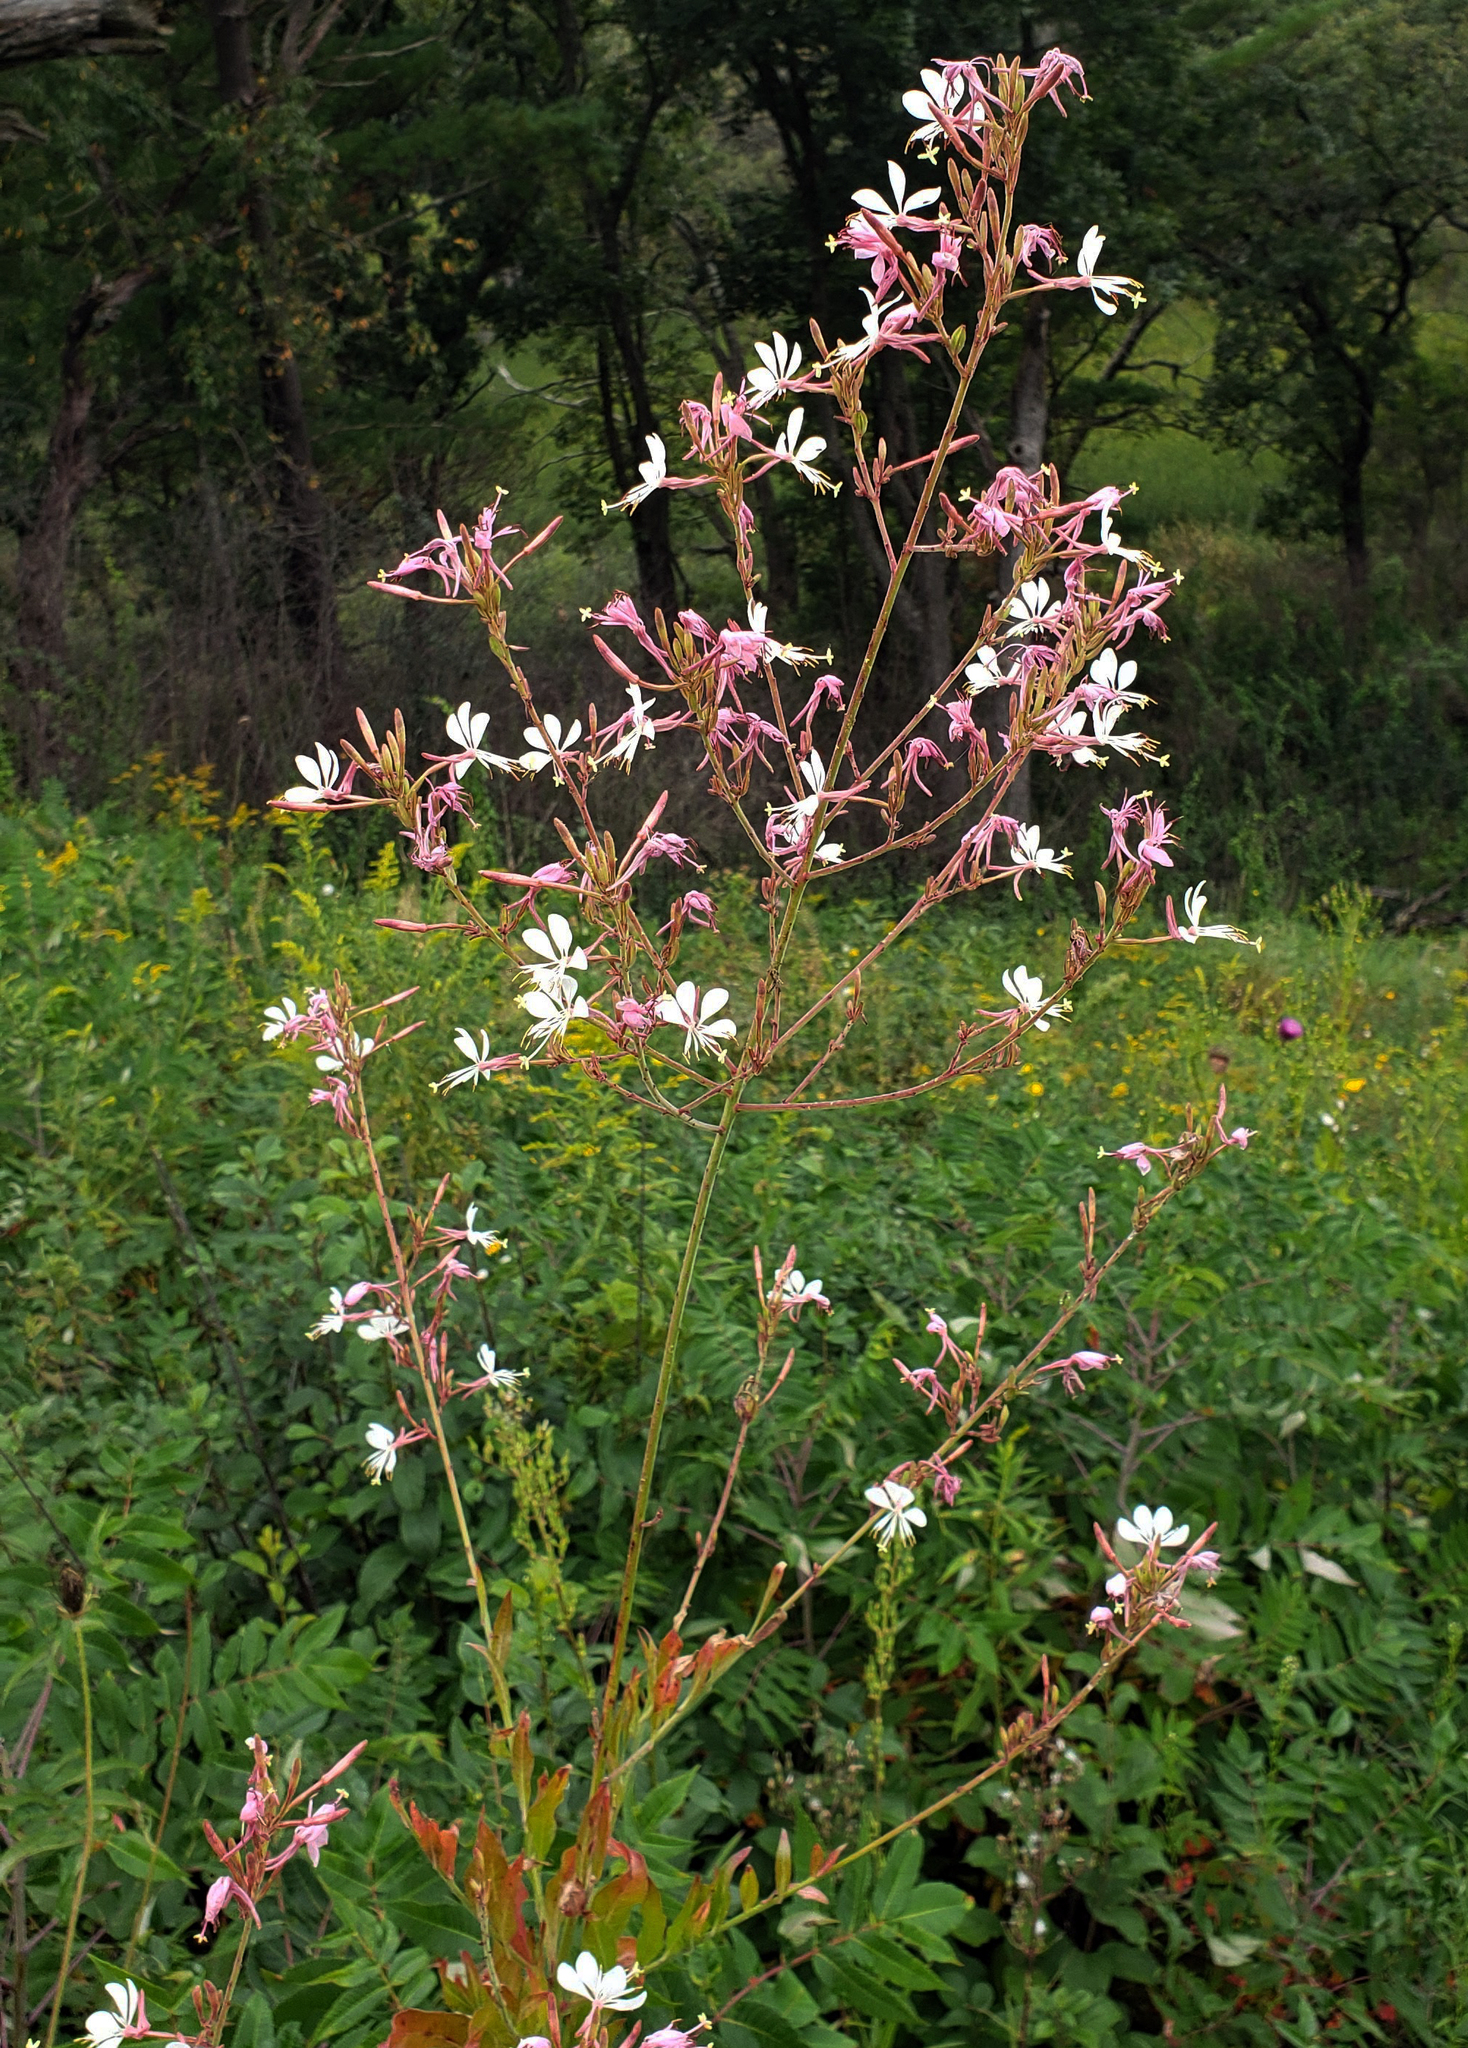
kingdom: Plantae
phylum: Tracheophyta
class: Magnoliopsida
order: Myrtales
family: Onagraceae
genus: Oenothera
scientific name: Oenothera gaura
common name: Biennial beeblossom
